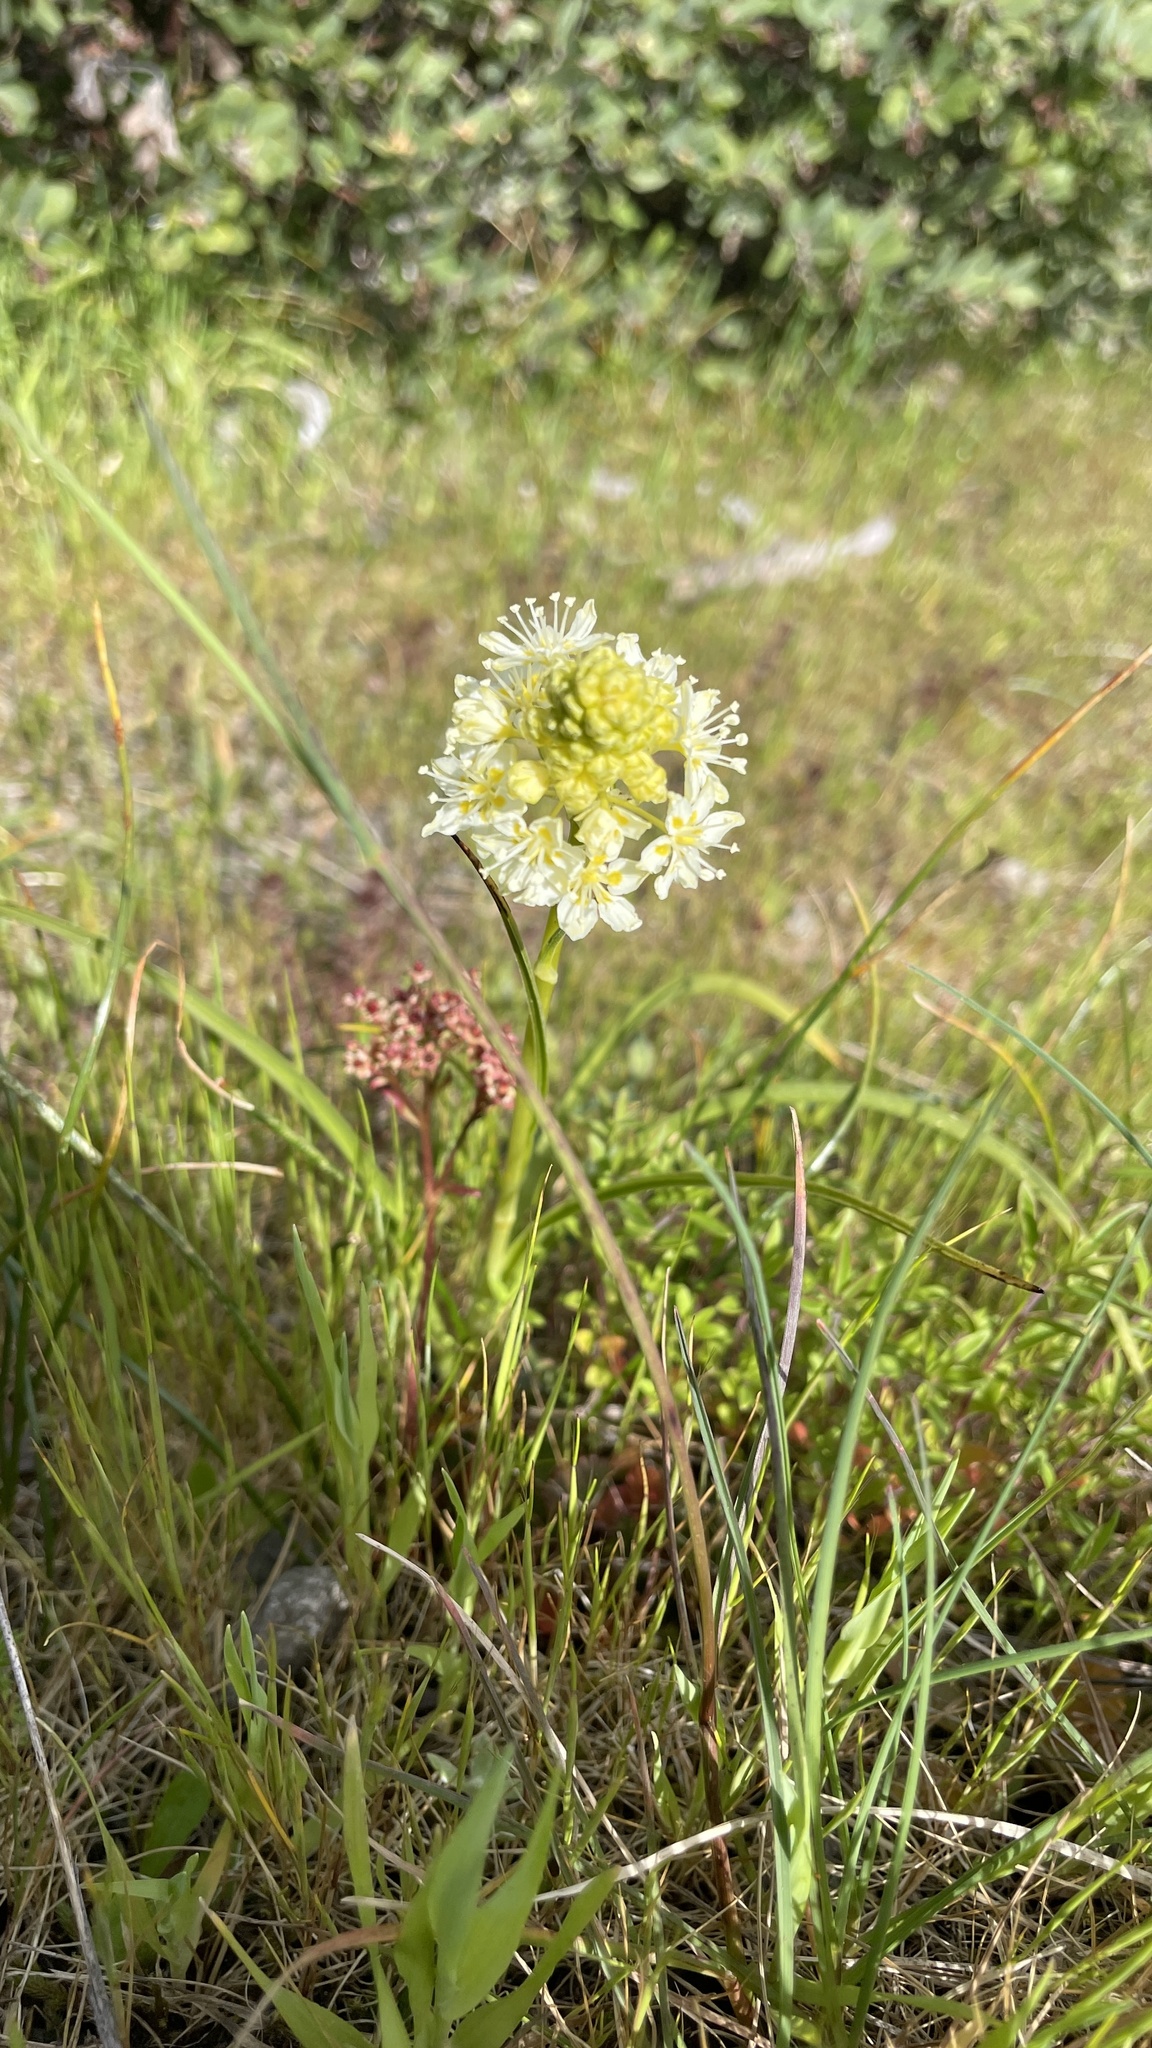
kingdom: Plantae
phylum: Tracheophyta
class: Liliopsida
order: Liliales
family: Melanthiaceae
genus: Toxicoscordion
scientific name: Toxicoscordion venenosum
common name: Meadow death camas
